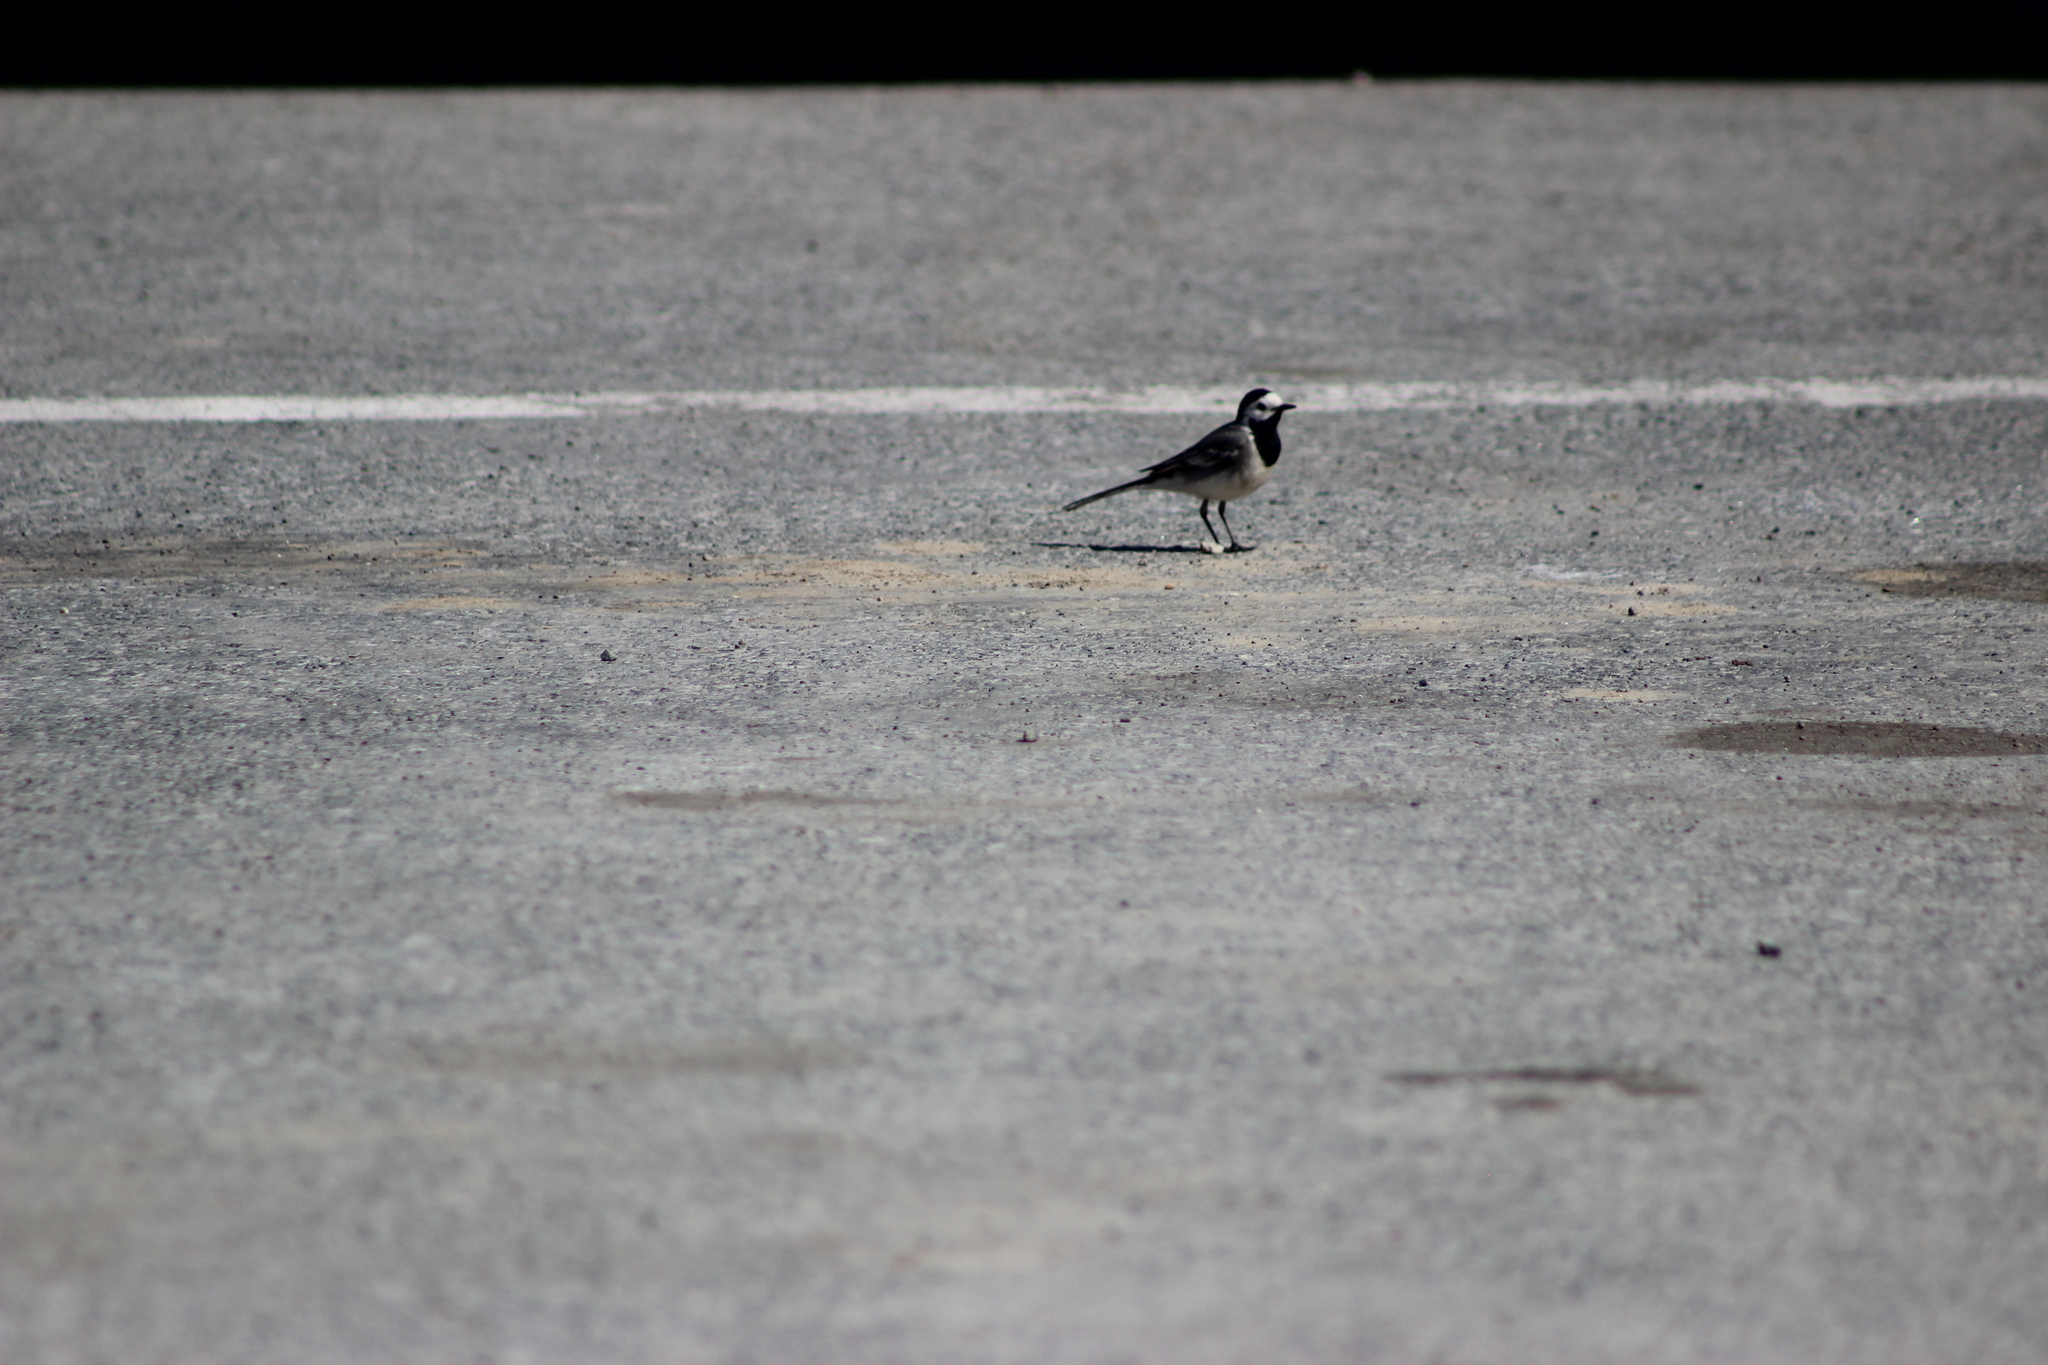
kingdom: Animalia
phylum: Chordata
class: Aves
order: Passeriformes
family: Motacillidae
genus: Motacilla
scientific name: Motacilla alba
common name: White wagtail
